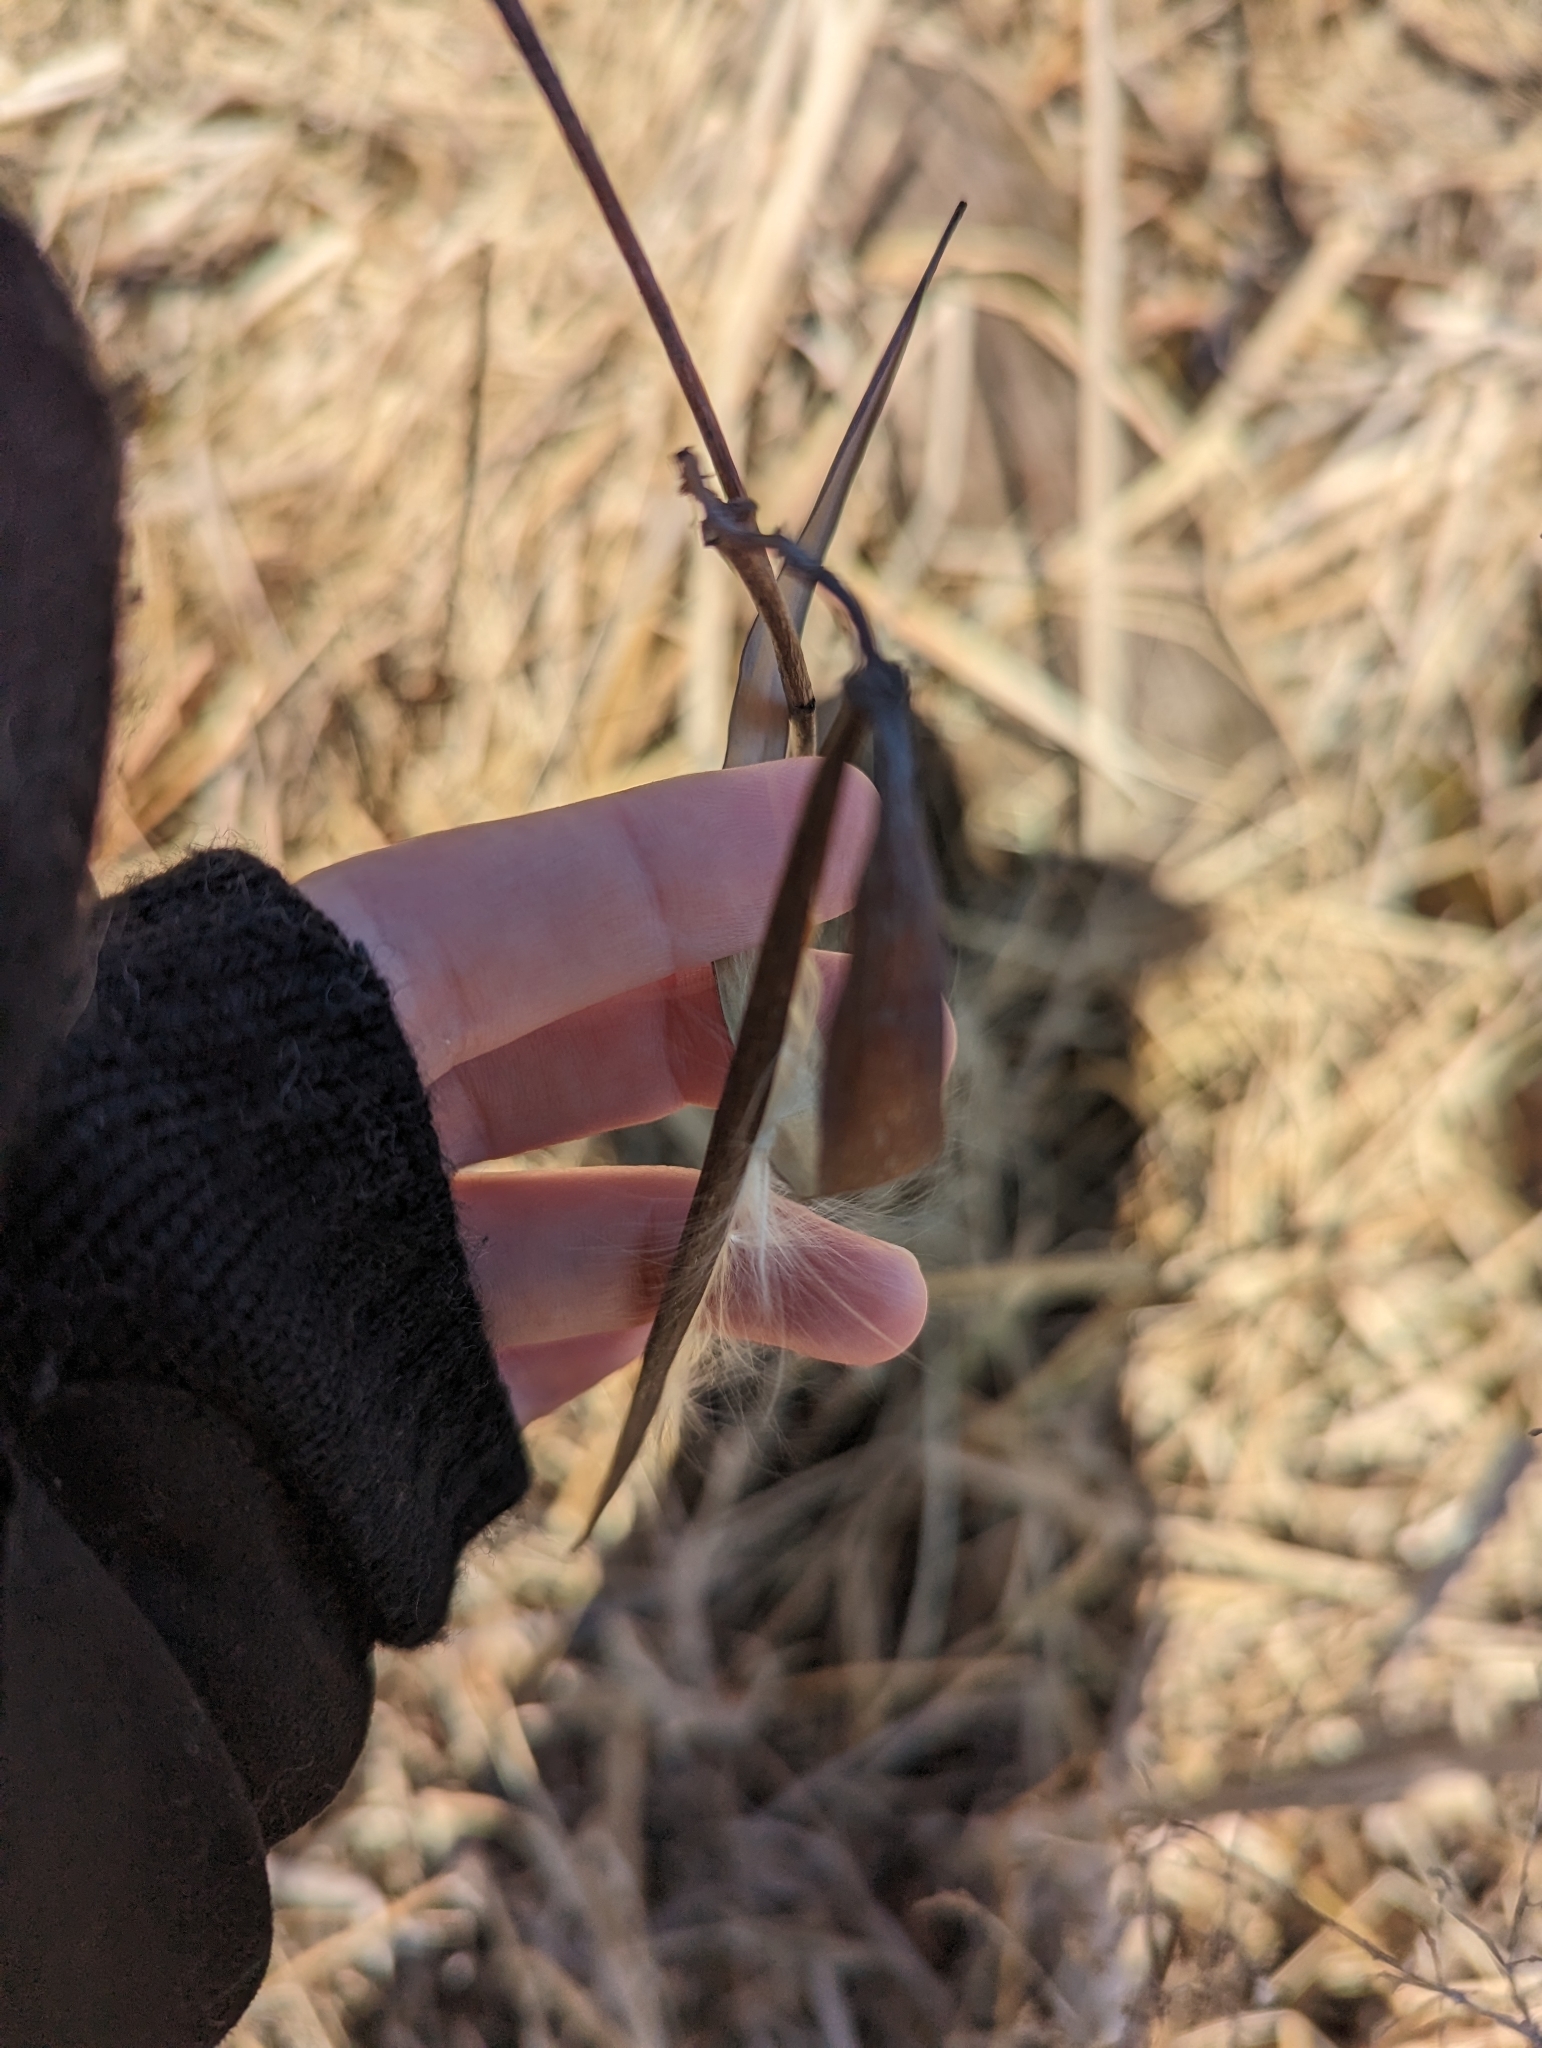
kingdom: Plantae
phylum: Tracheophyta
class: Magnoliopsida
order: Gentianales
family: Apocynaceae
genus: Apocynum
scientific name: Apocynum cannabinum
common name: Hemp dogbane
